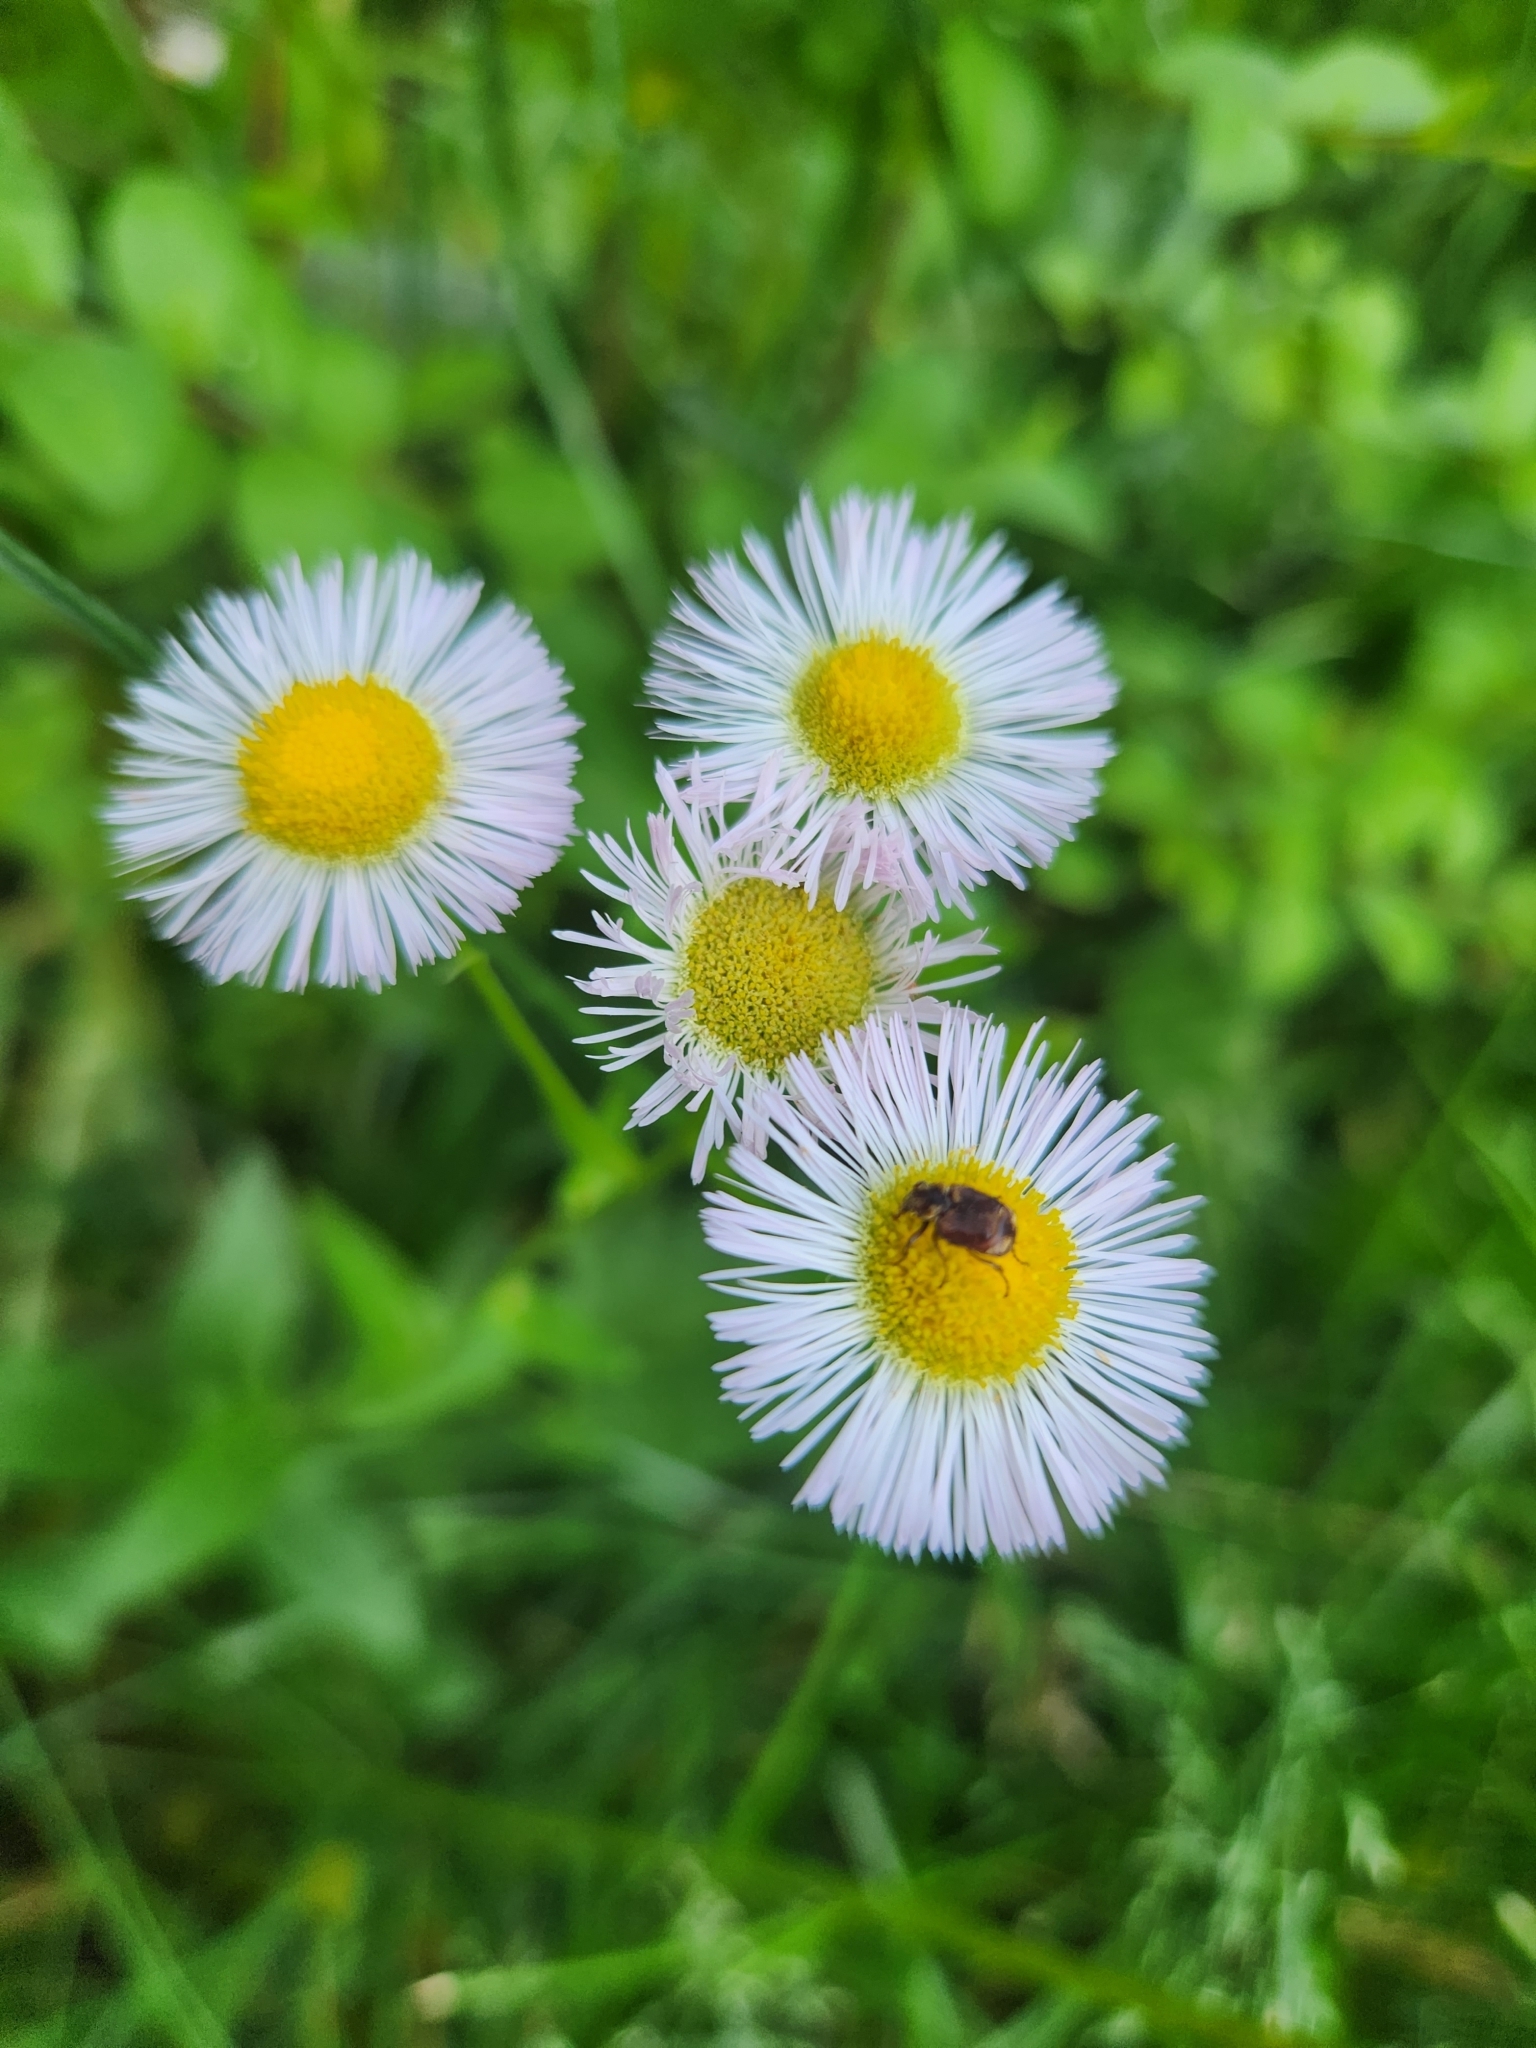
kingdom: Plantae
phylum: Tracheophyta
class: Magnoliopsida
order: Asterales
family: Asteraceae
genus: Erigeron
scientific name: Erigeron philadelphicus
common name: Robin's-plantain
